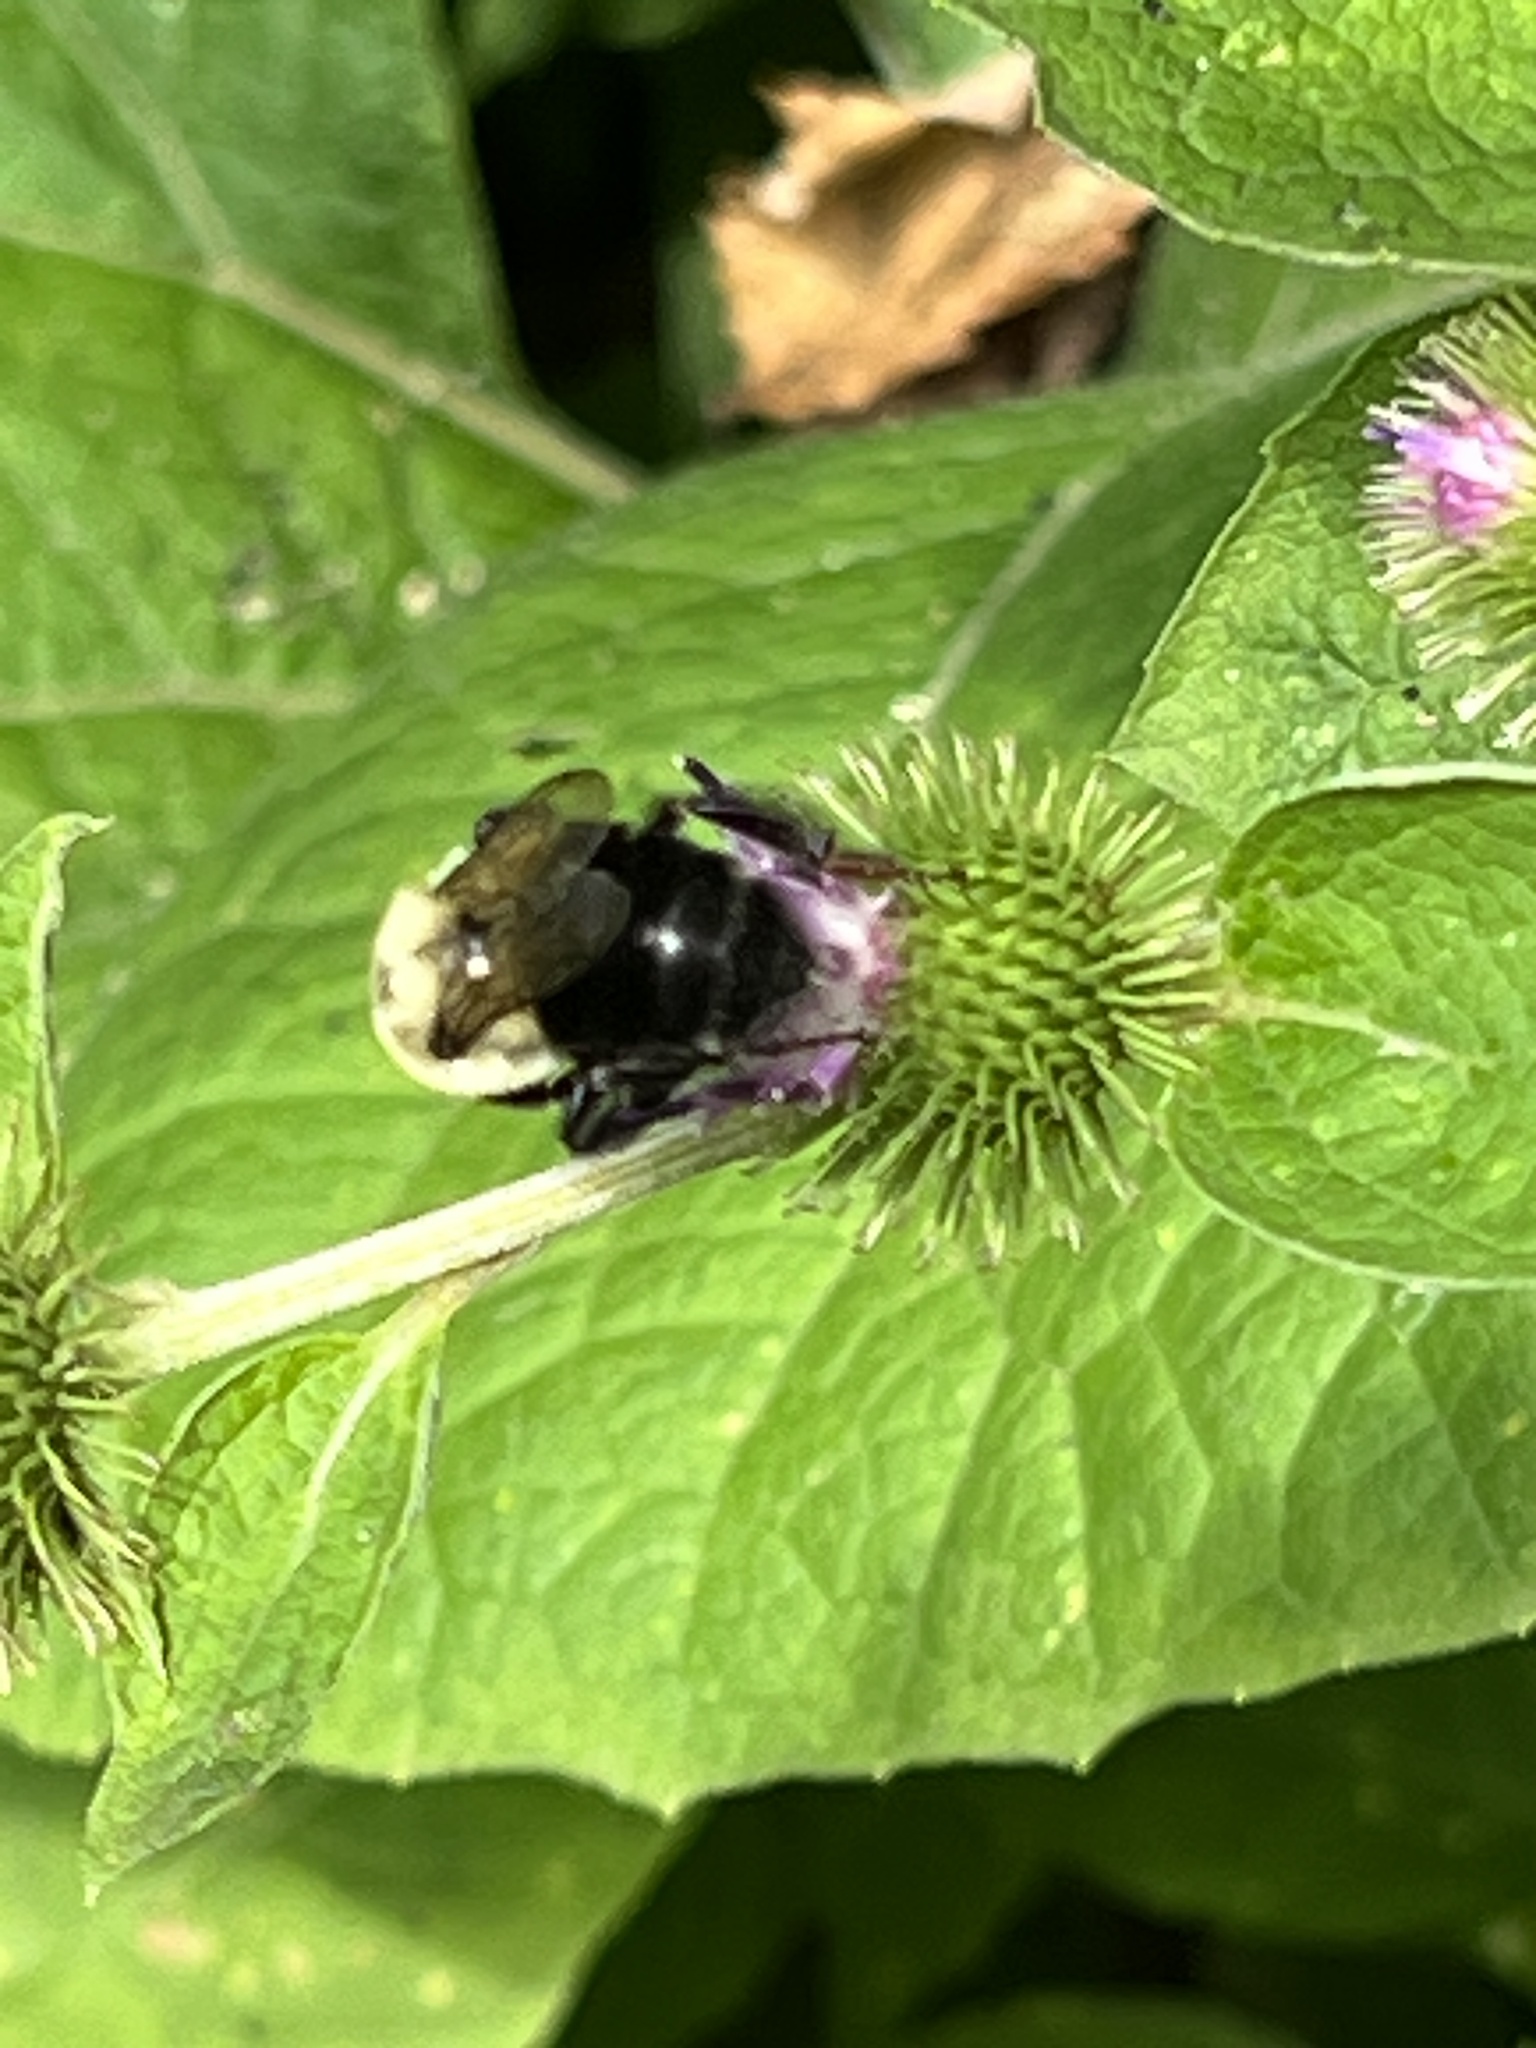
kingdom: Animalia
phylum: Arthropoda
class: Insecta
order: Hymenoptera
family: Apidae
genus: Bombus
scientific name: Bombus impatiens
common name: Common eastern bumble bee
